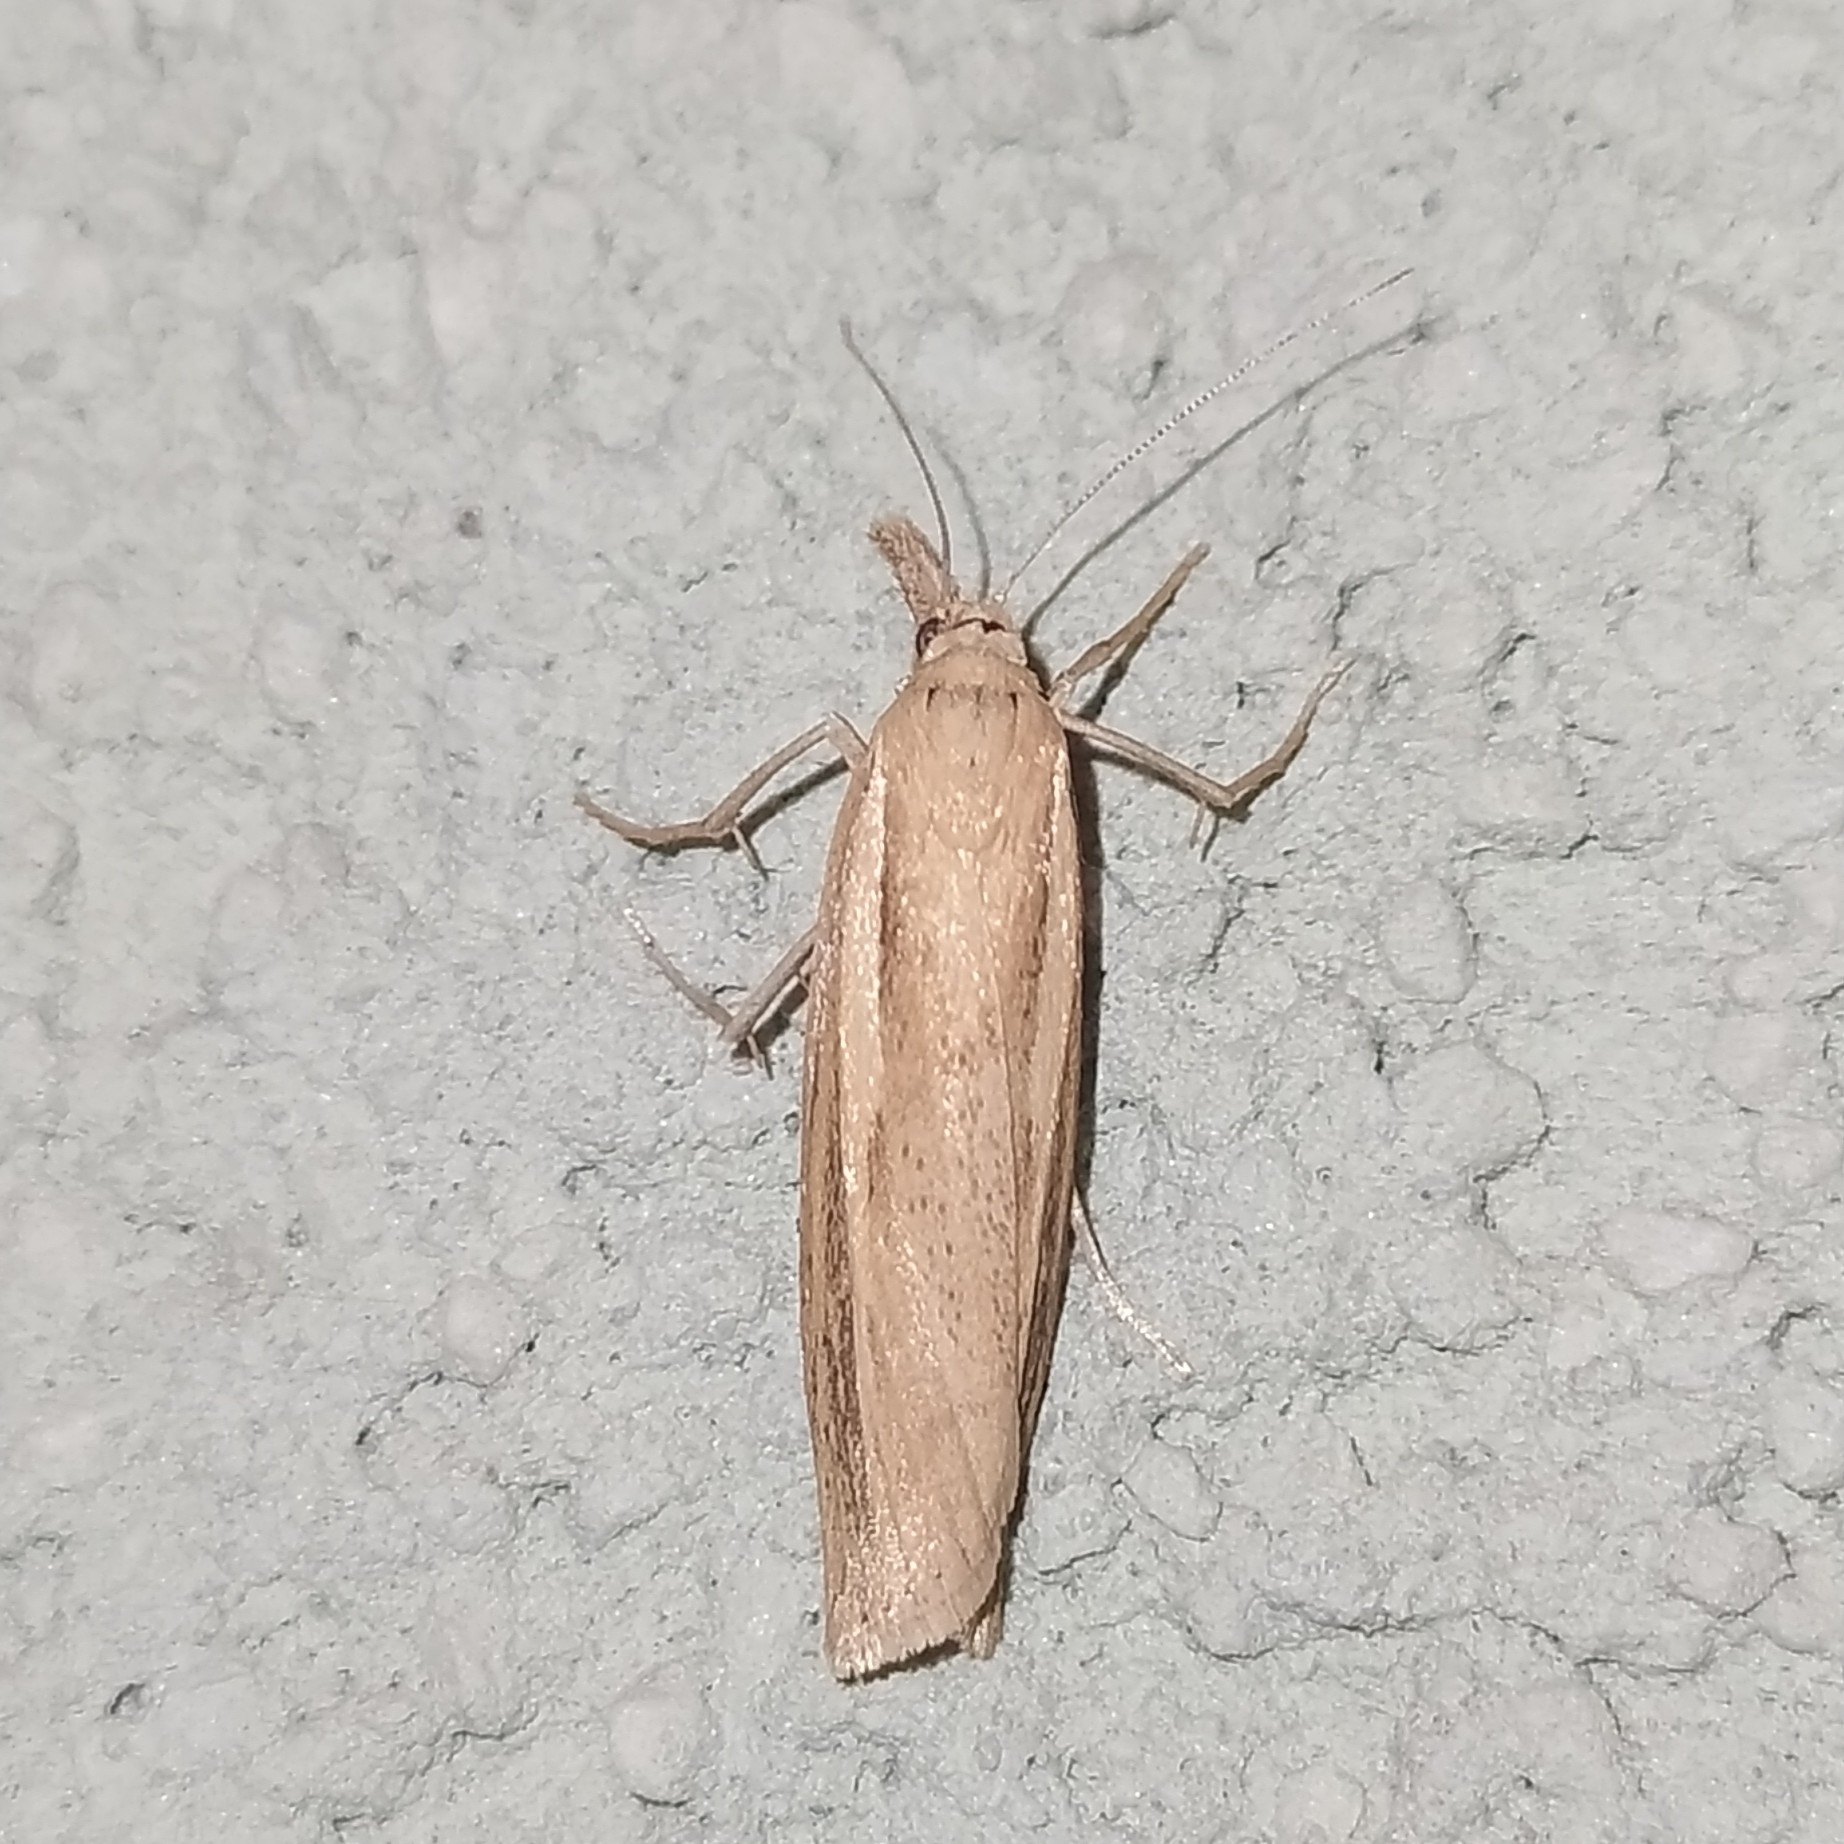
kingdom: Animalia
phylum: Arthropoda
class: Insecta
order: Lepidoptera
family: Crambidae
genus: Agriphila
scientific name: Agriphila tristellus
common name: Common grass-veneer
